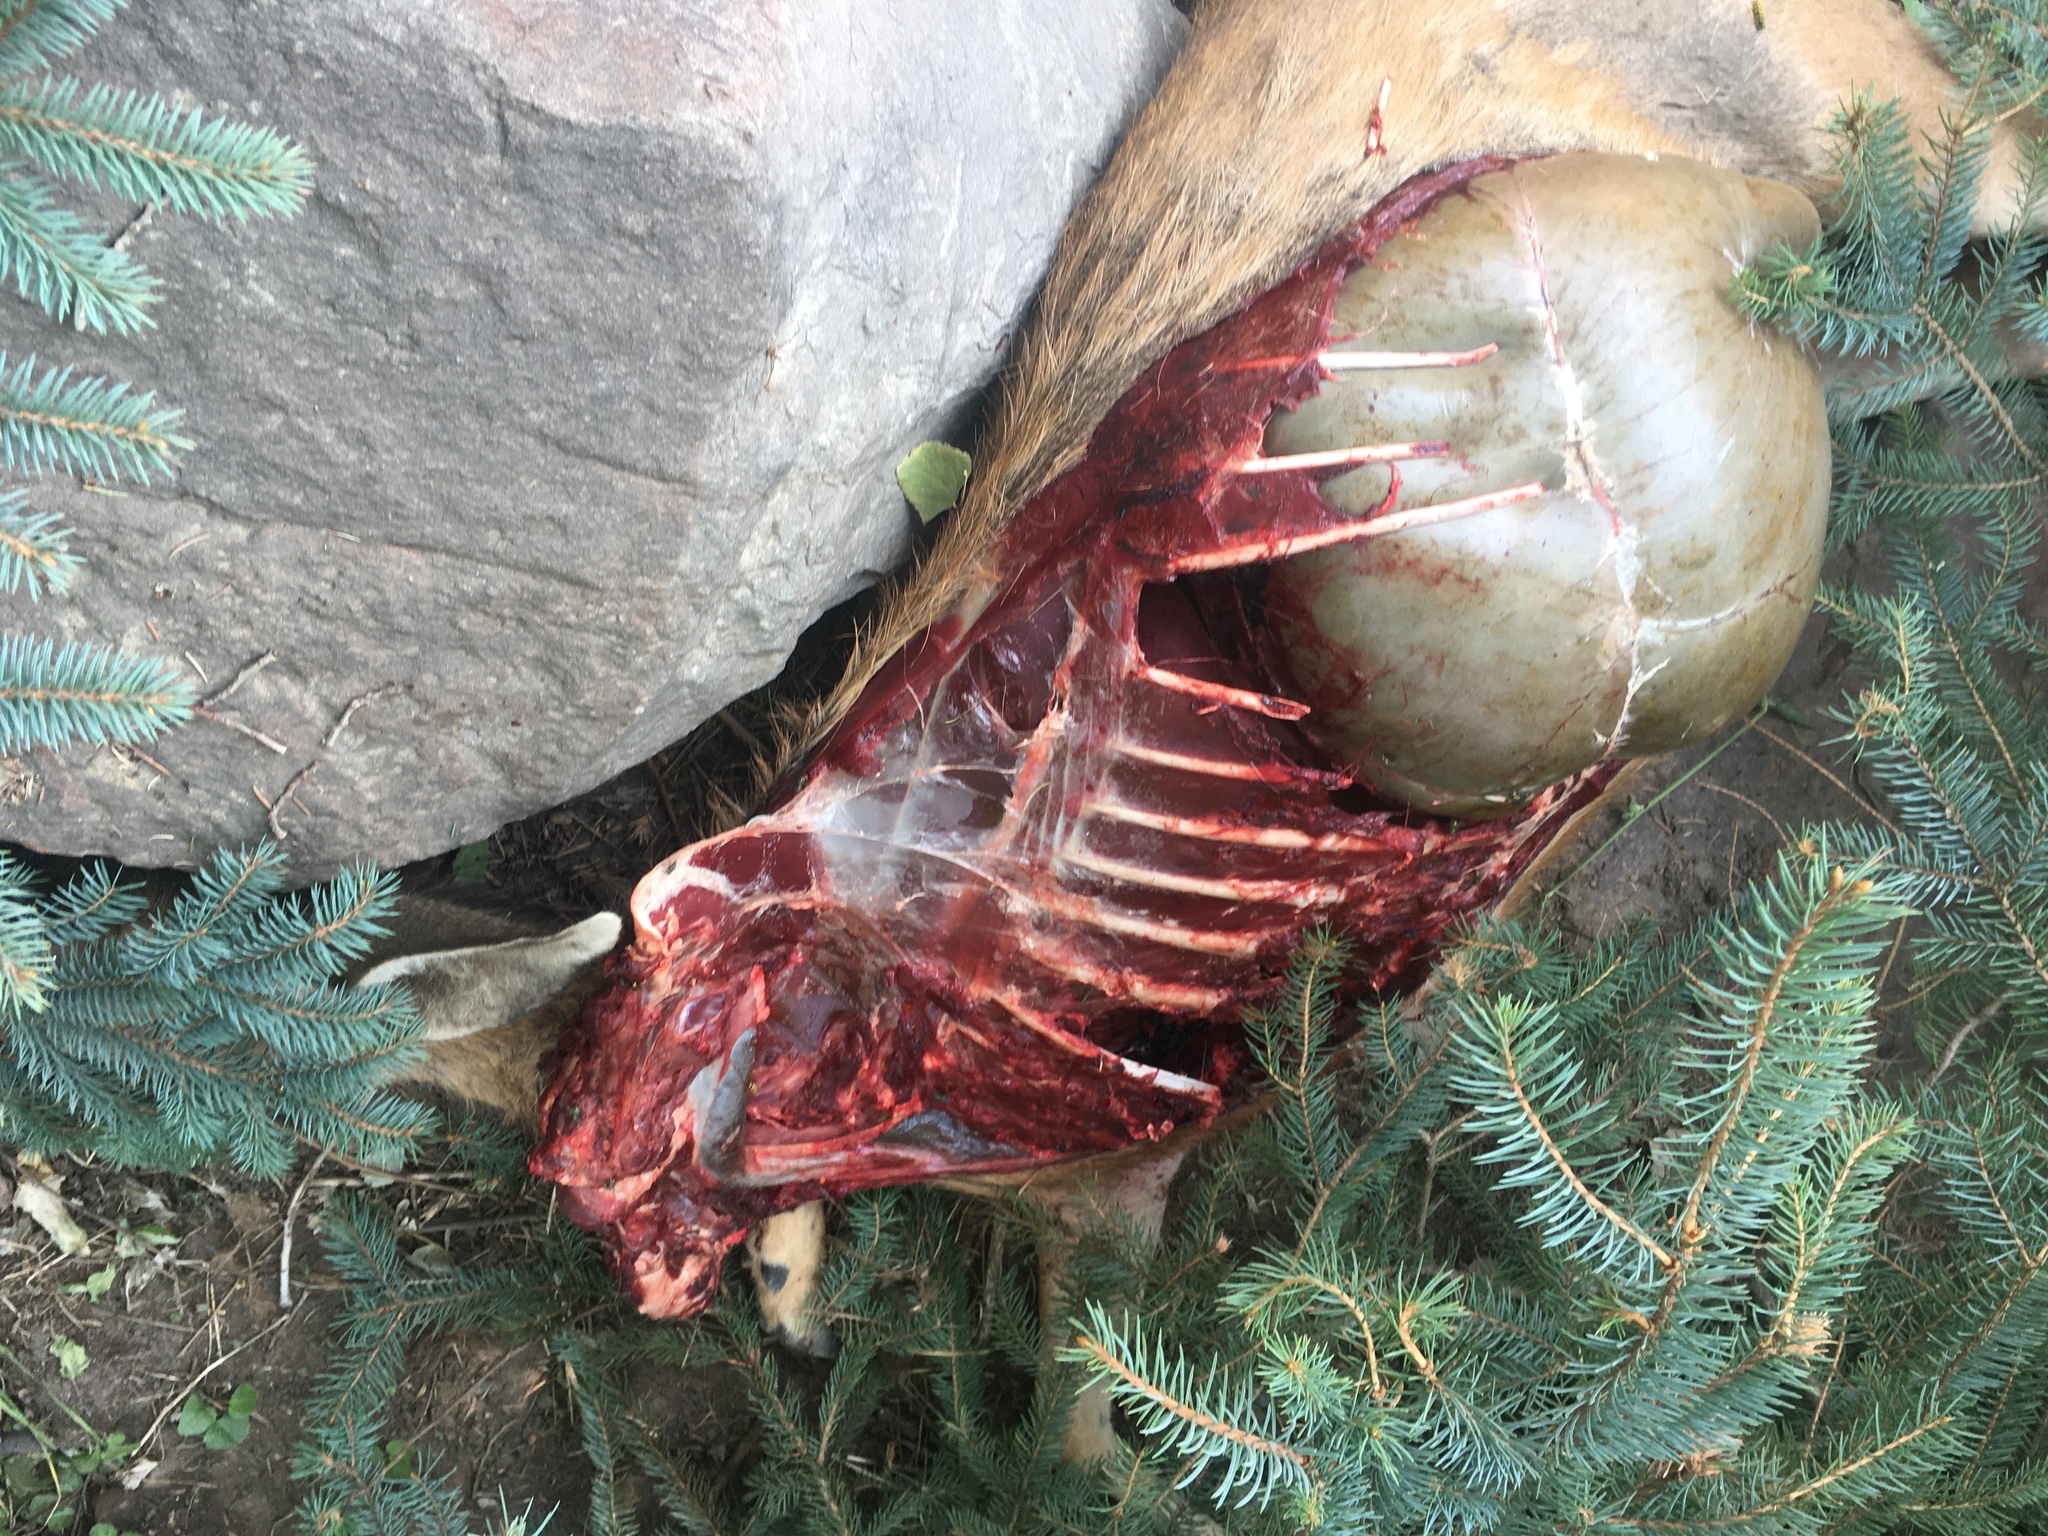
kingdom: Animalia
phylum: Chordata
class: Mammalia
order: Artiodactyla
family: Cervidae
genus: Odocoileus
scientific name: Odocoileus hemionus
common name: Mule deer
